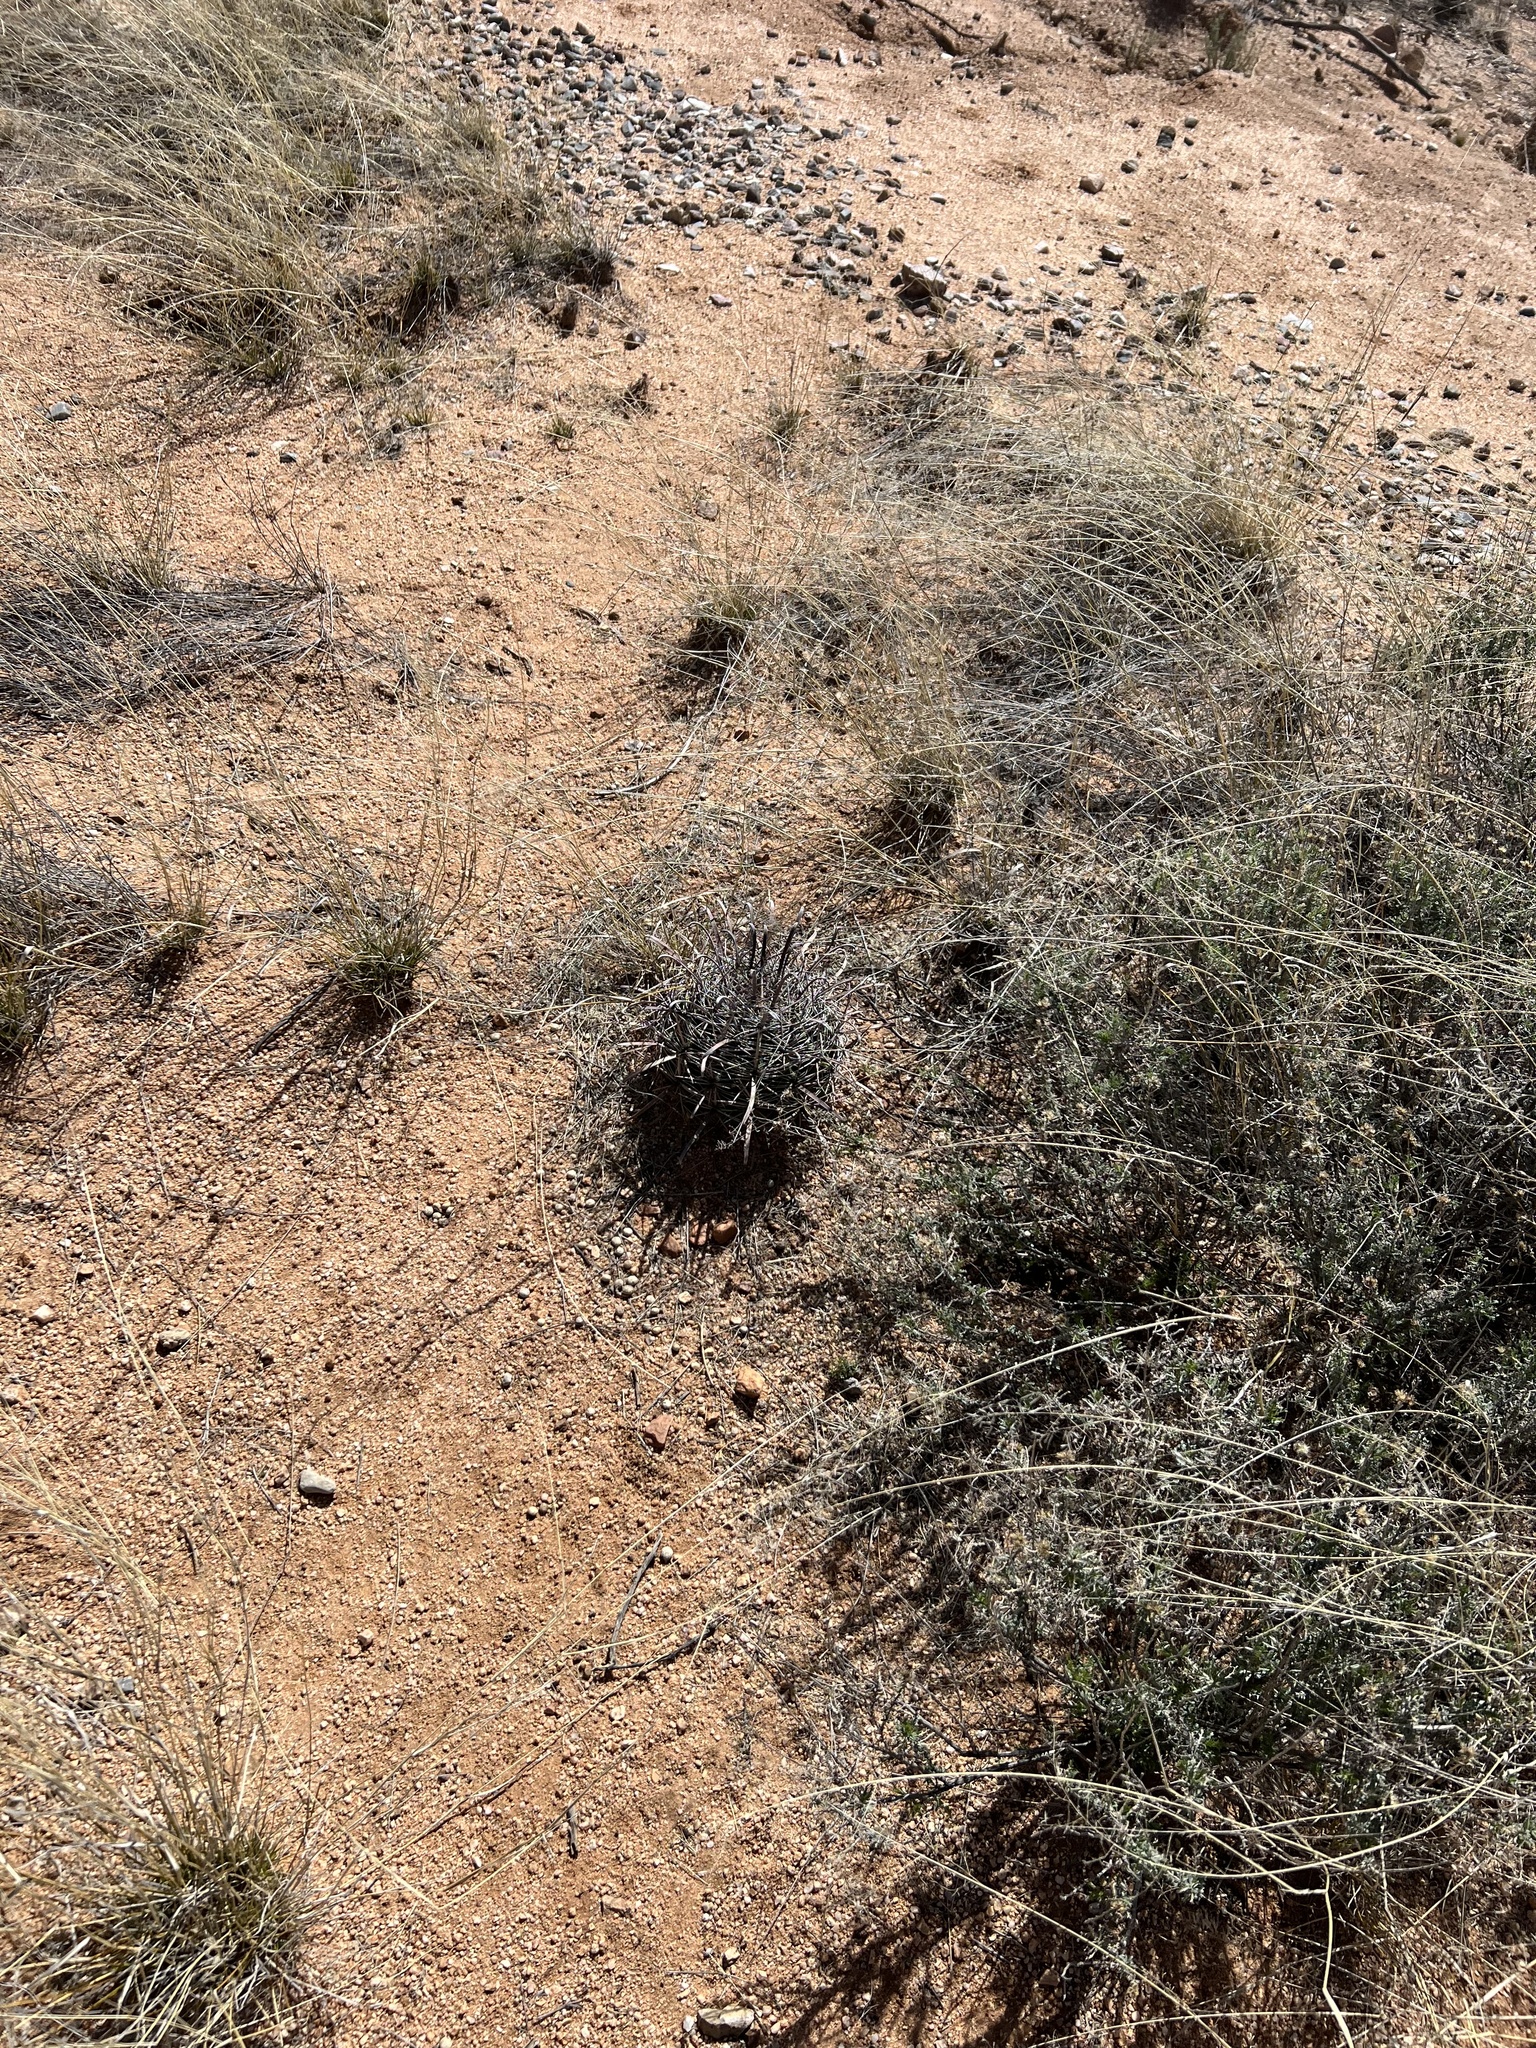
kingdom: Plantae
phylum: Tracheophyta
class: Magnoliopsida
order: Caryophyllales
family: Cactaceae
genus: Ferocactus
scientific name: Ferocactus wislizeni
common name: Candy barrel cactus
